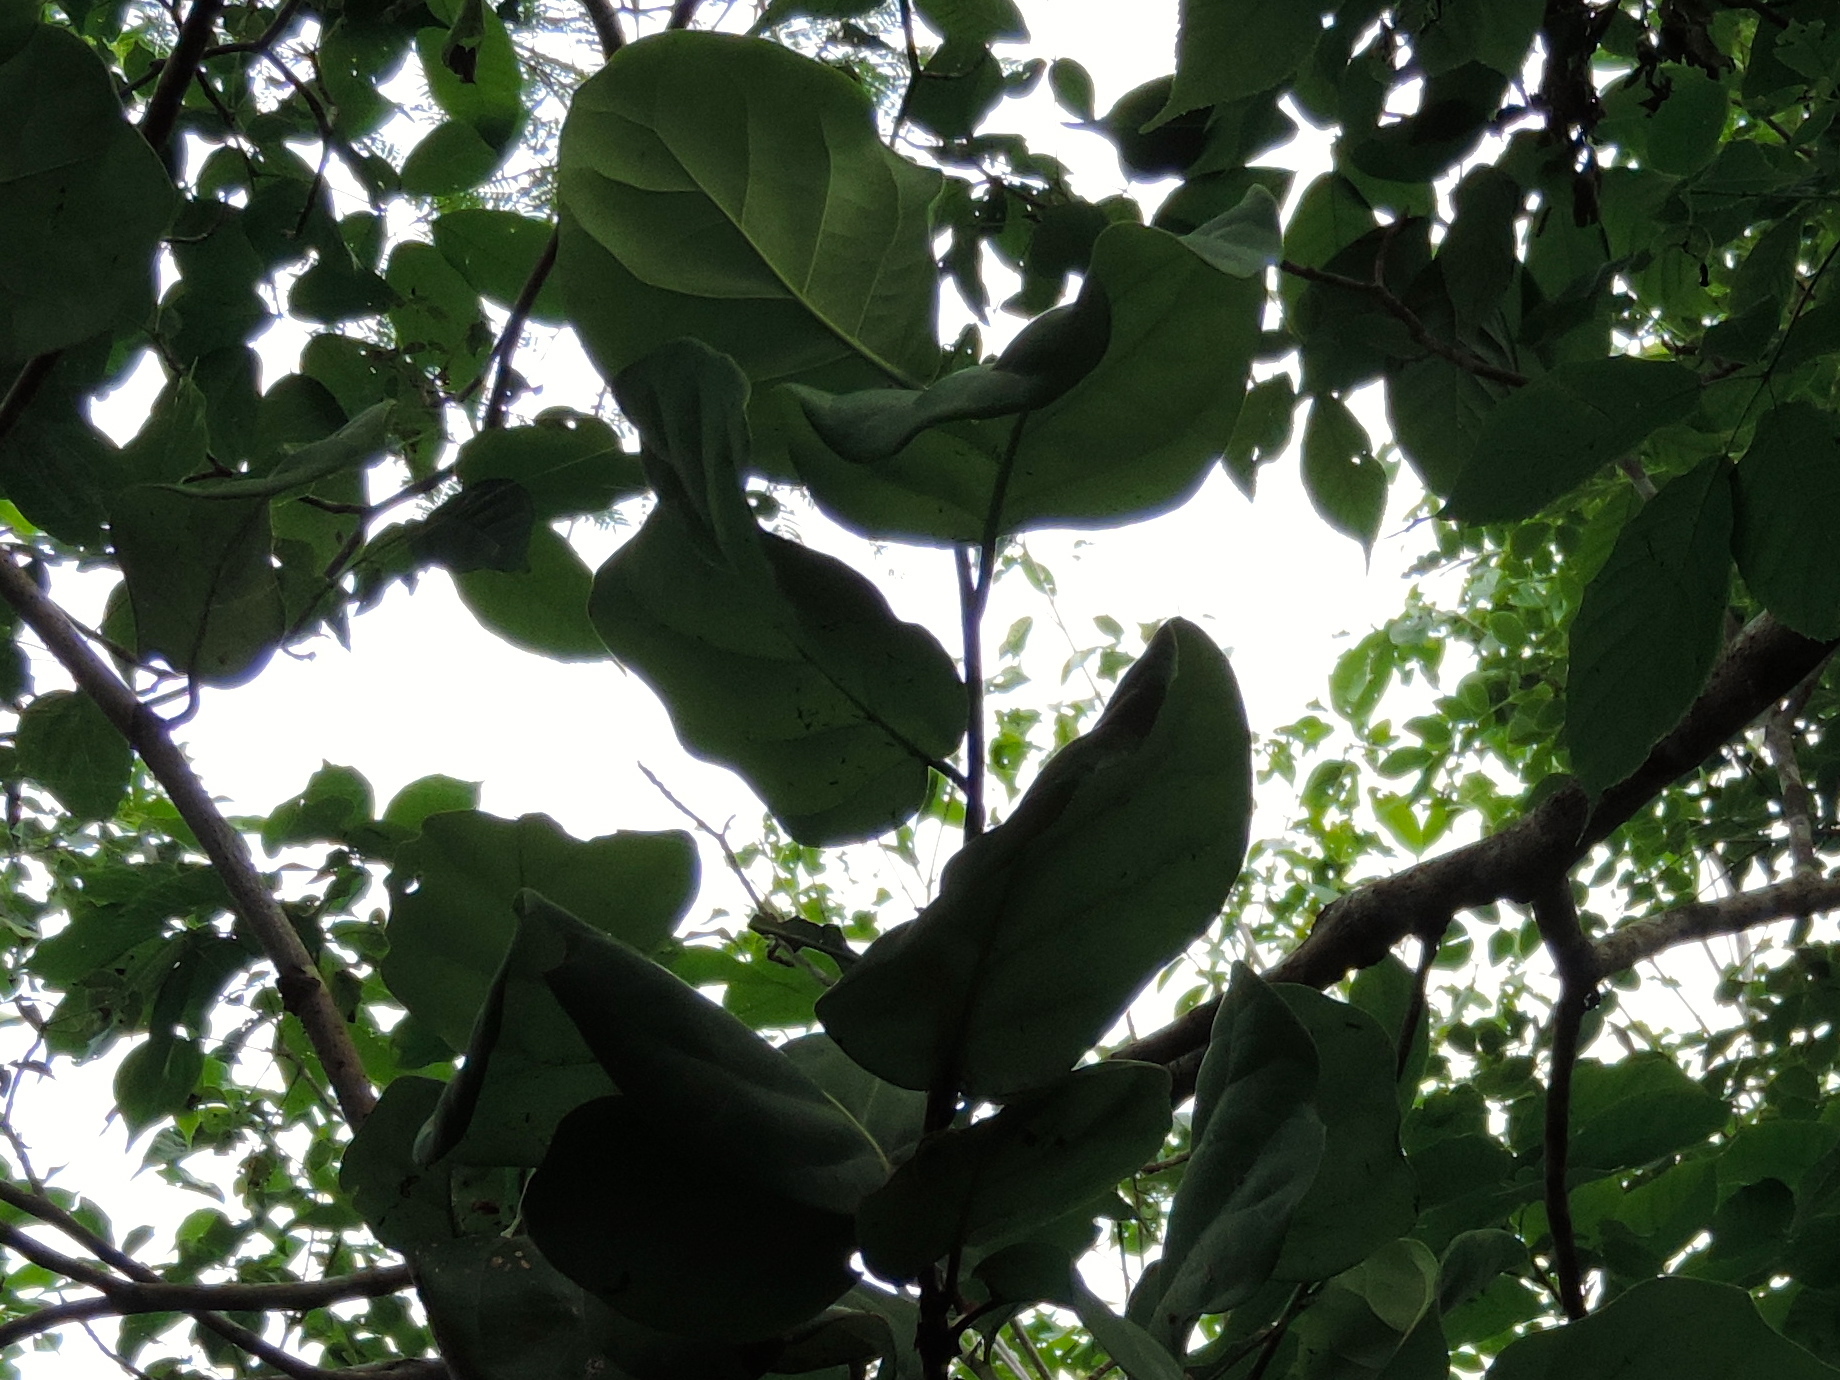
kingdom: Plantae
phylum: Tracheophyta
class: Magnoliopsida
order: Caryophyllales
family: Polygonaceae
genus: Coccoloba
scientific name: Coccoloba uvifera
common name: Seagrape
